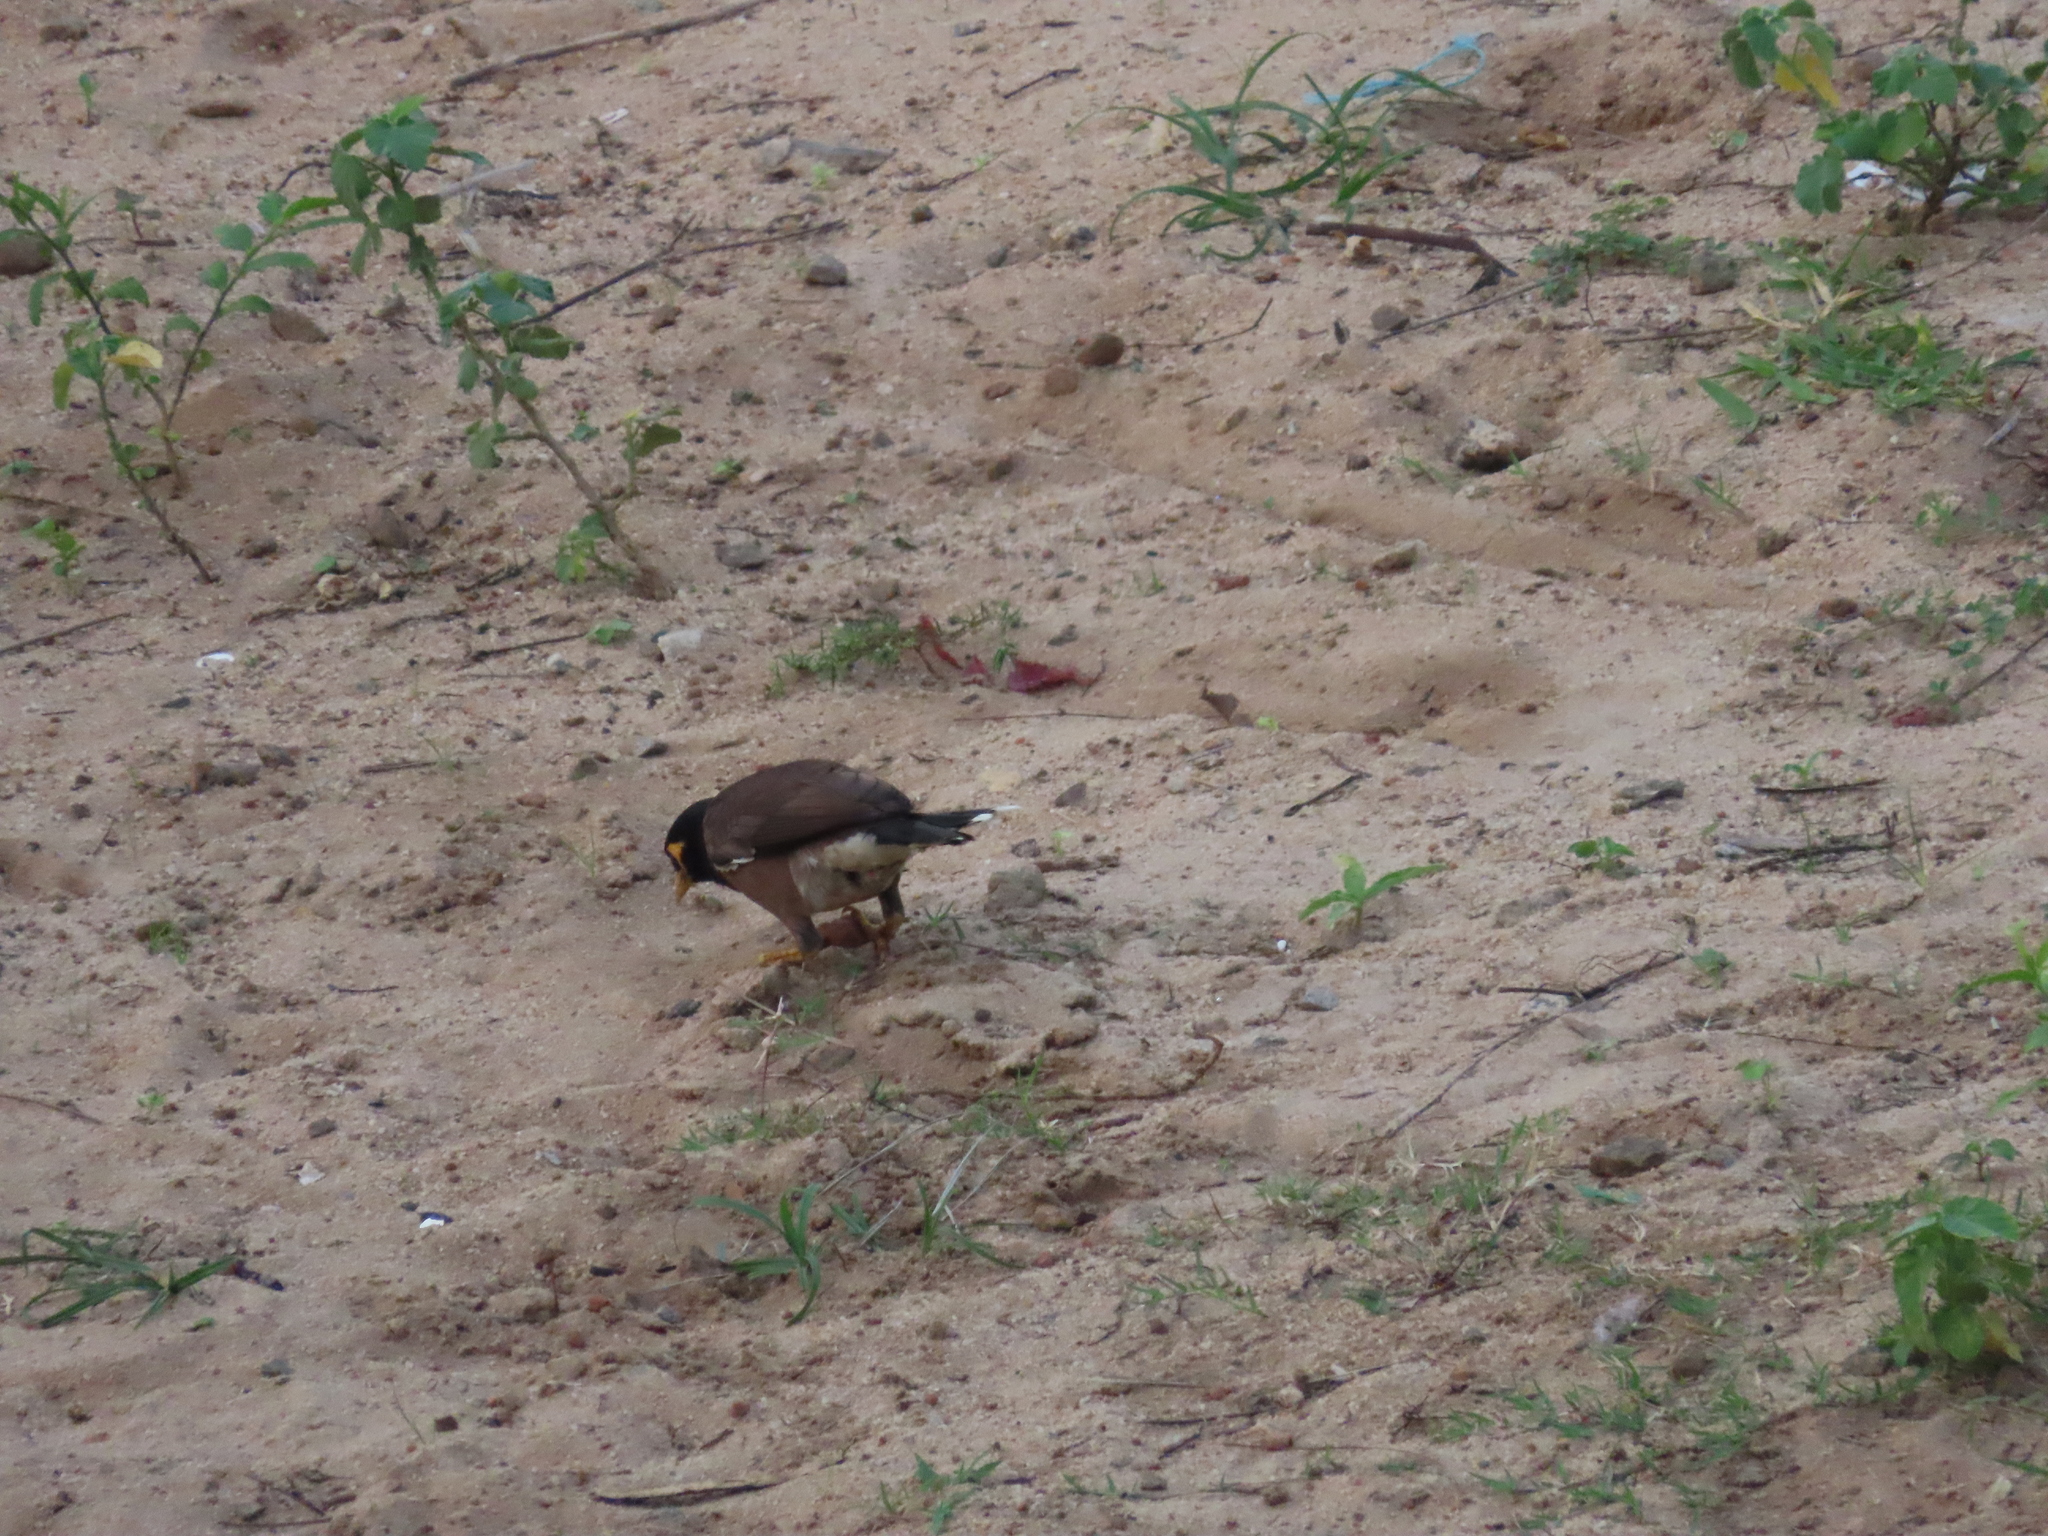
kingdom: Animalia
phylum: Chordata
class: Aves
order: Passeriformes
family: Sturnidae
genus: Acridotheres
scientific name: Acridotheres tristis
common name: Common myna
